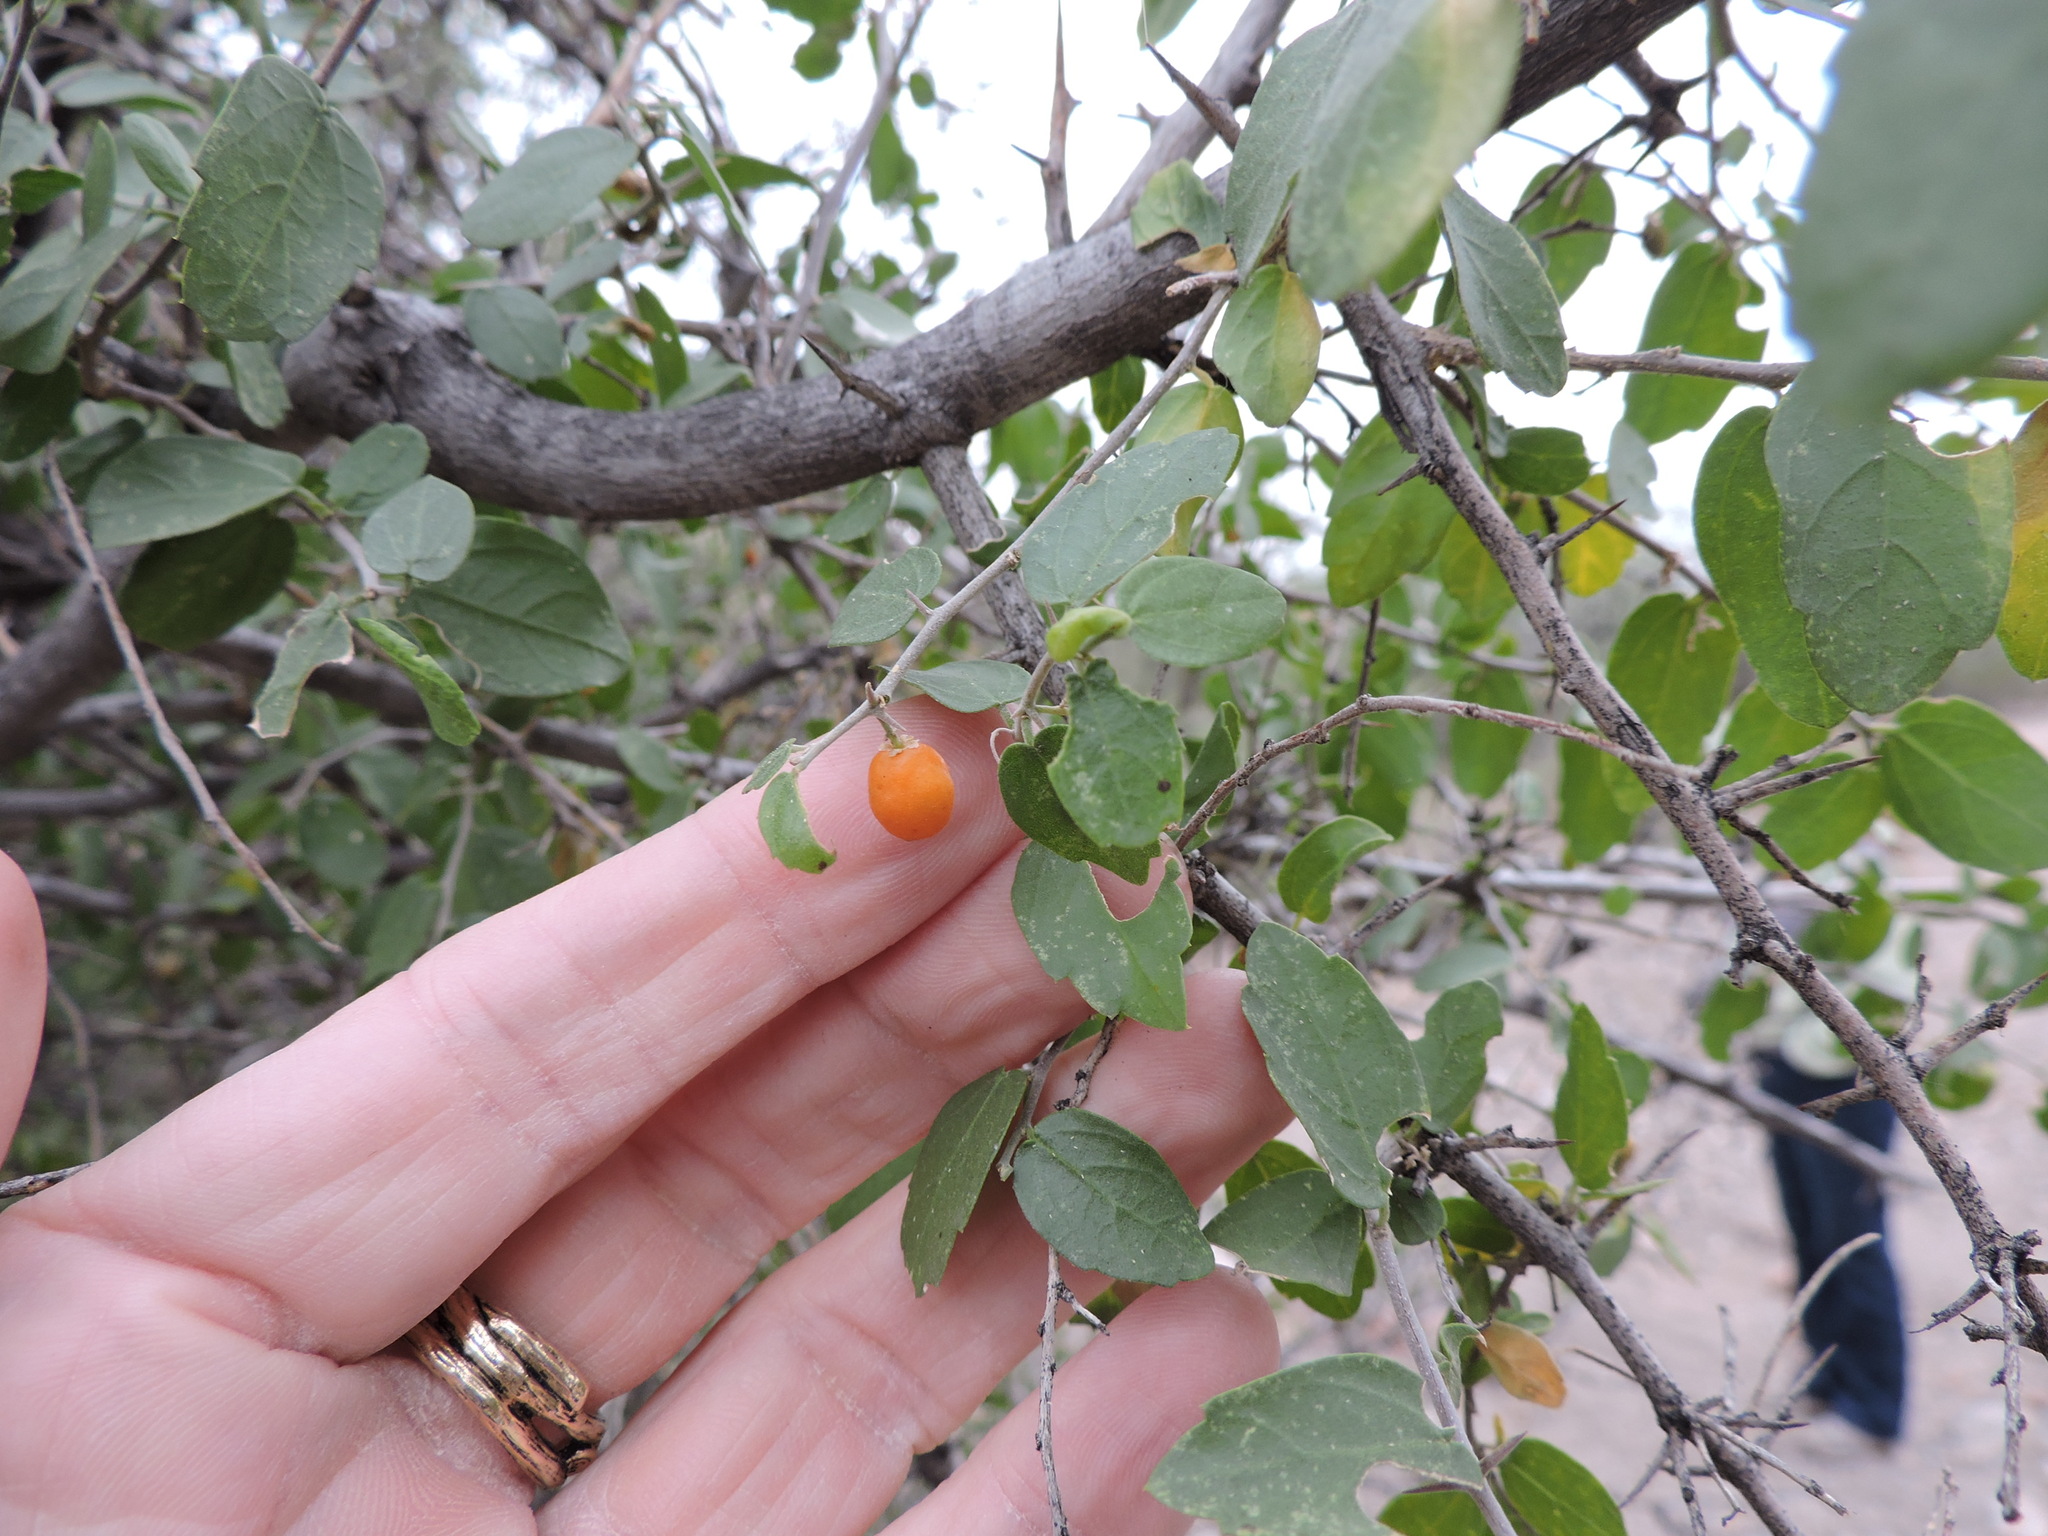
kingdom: Plantae
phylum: Tracheophyta
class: Magnoliopsida
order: Rosales
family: Cannabaceae
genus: Celtis
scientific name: Celtis pallida
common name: Desert hackberry
